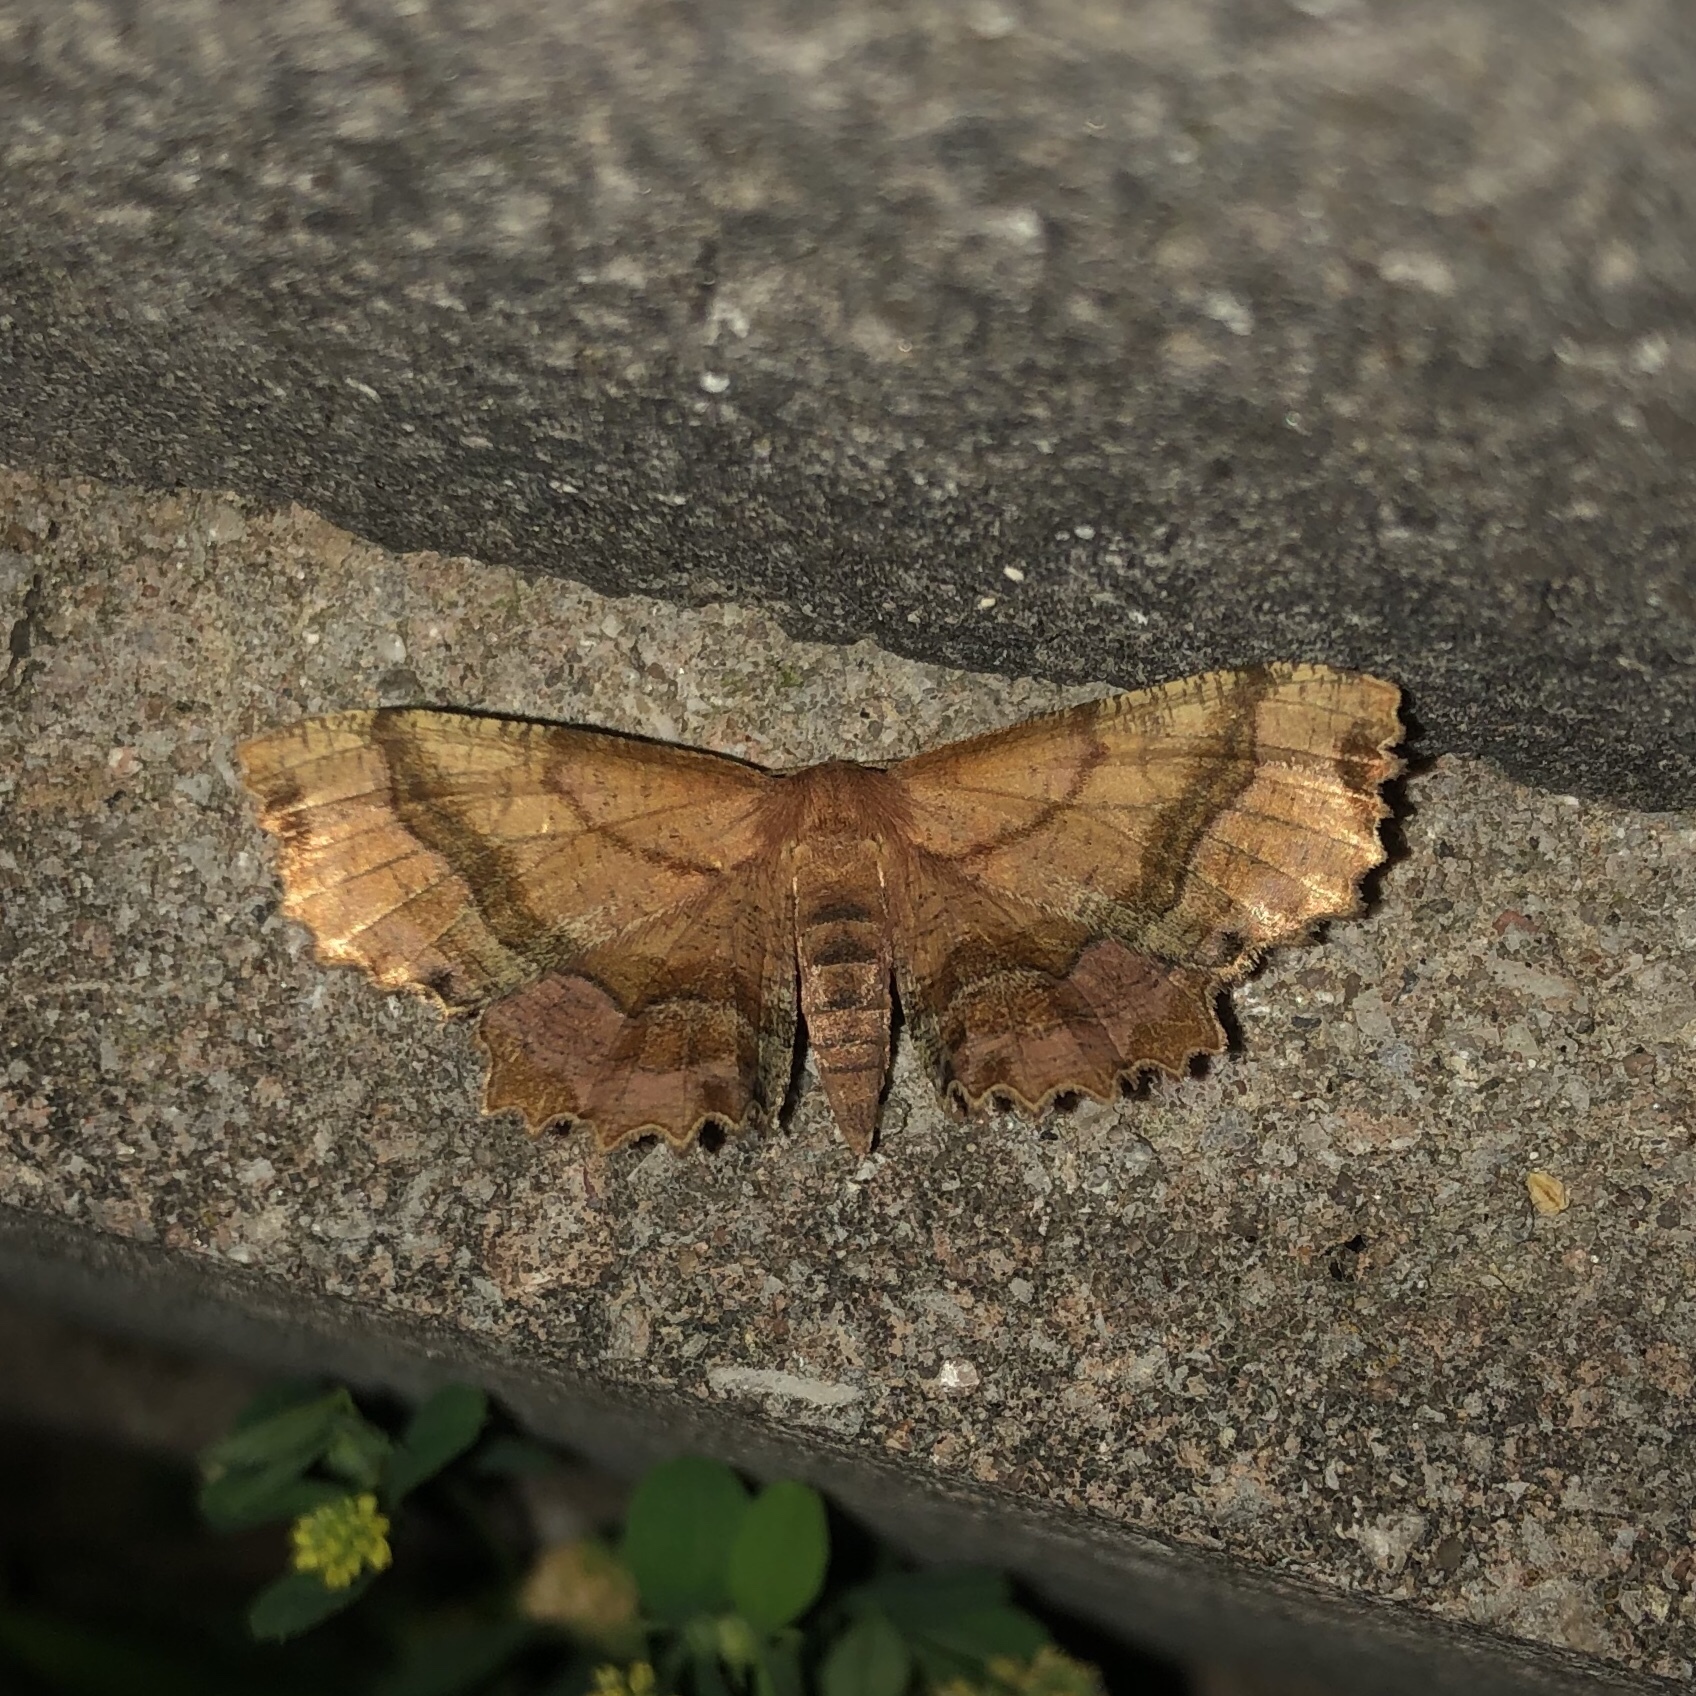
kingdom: Animalia
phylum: Arthropoda
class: Insecta
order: Lepidoptera
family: Geometridae
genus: Cepphis
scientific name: Cepphis armataria
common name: Scallop moth
